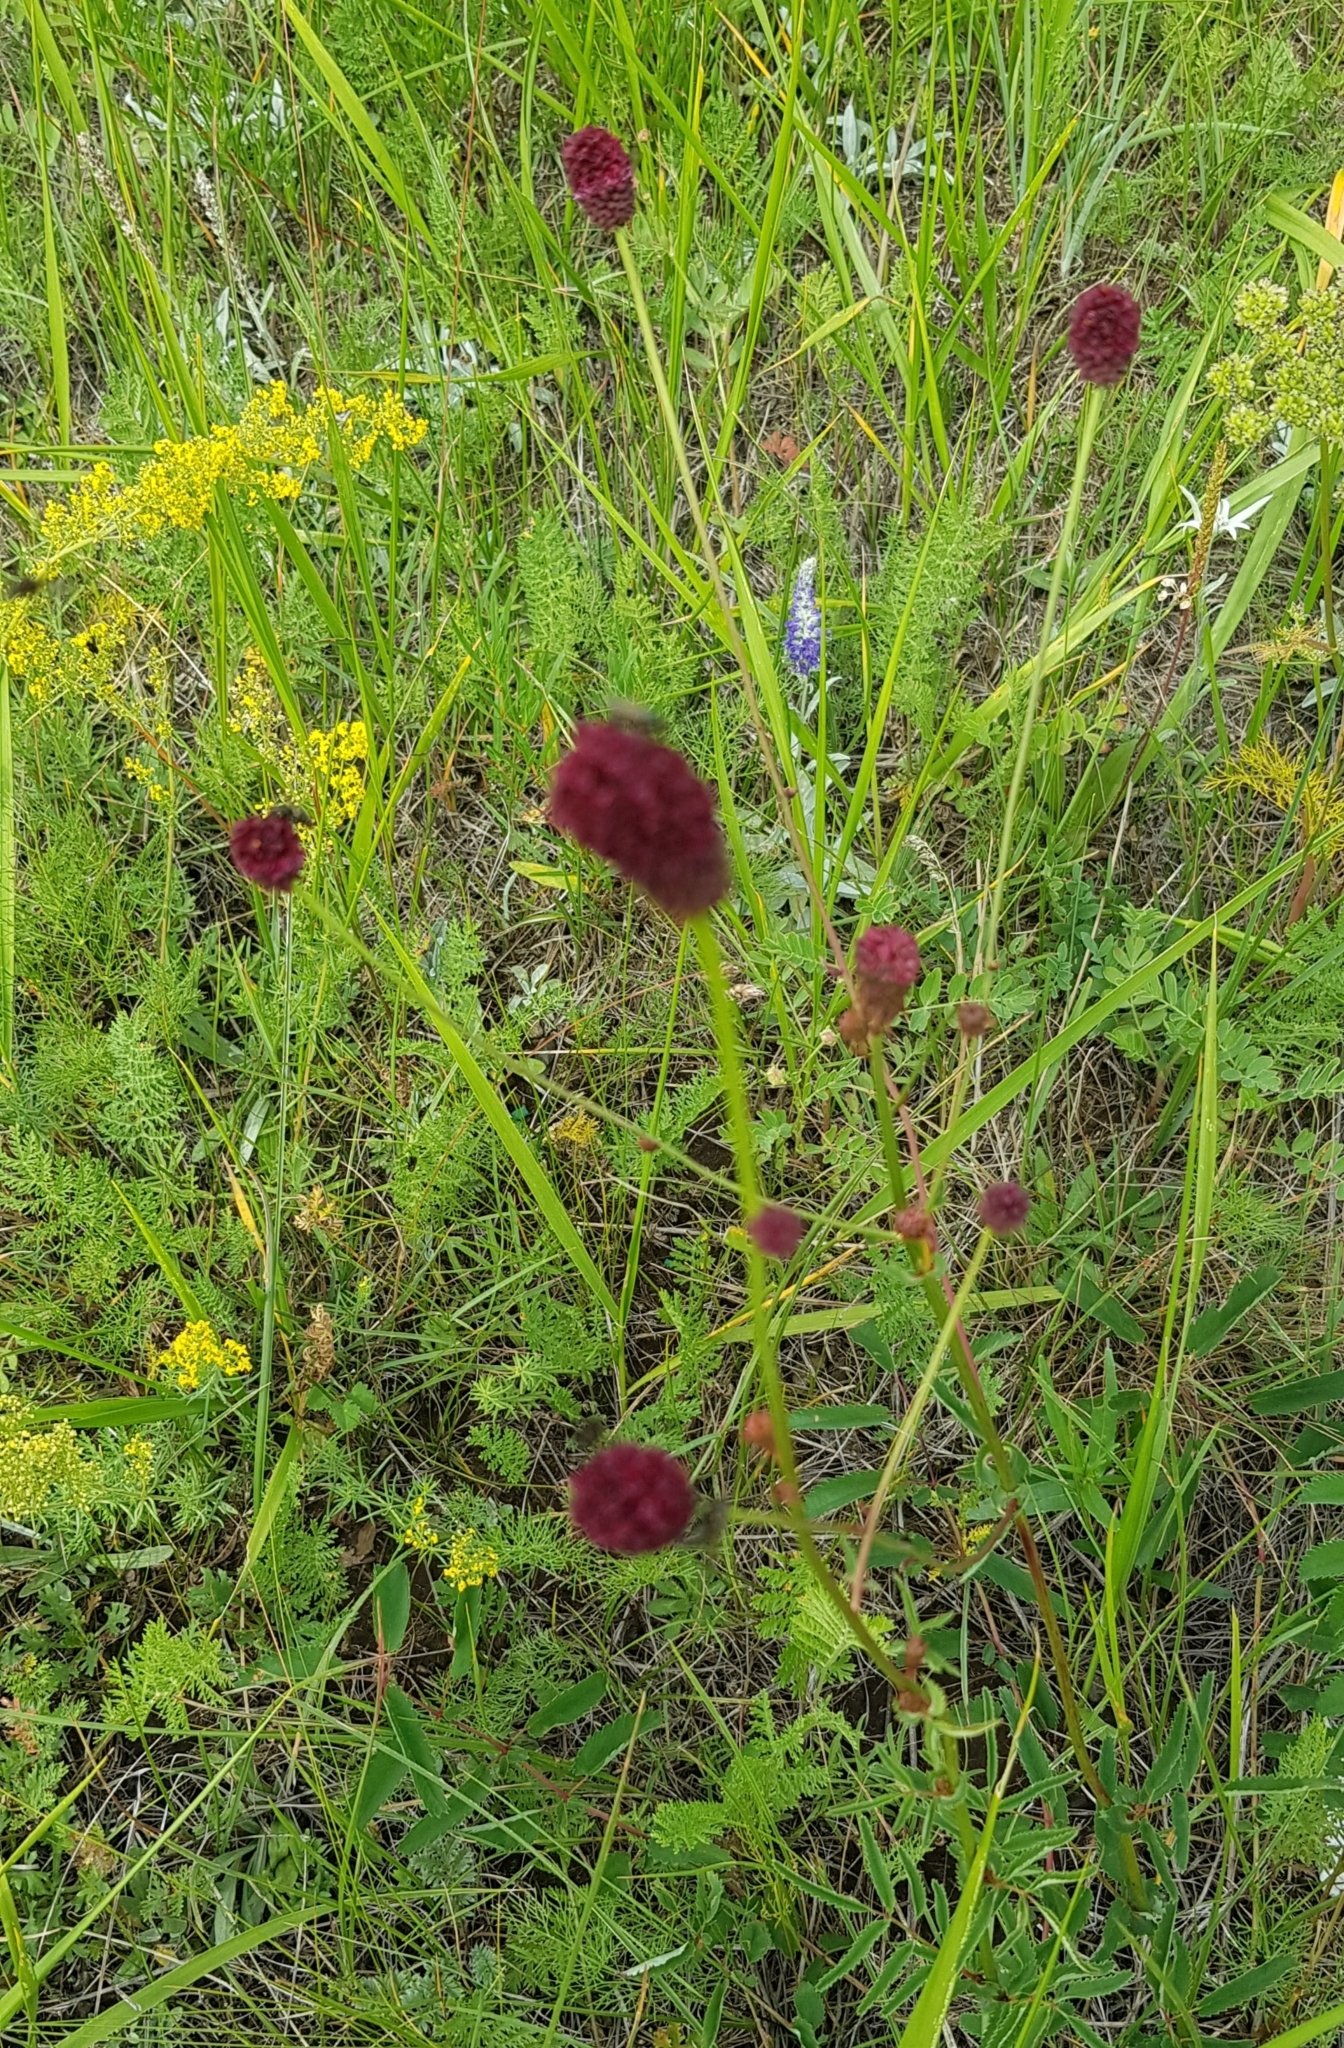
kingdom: Plantae
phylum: Tracheophyta
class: Magnoliopsida
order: Rosales
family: Rosaceae
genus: Sanguisorba
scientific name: Sanguisorba officinalis
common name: Great burnet
